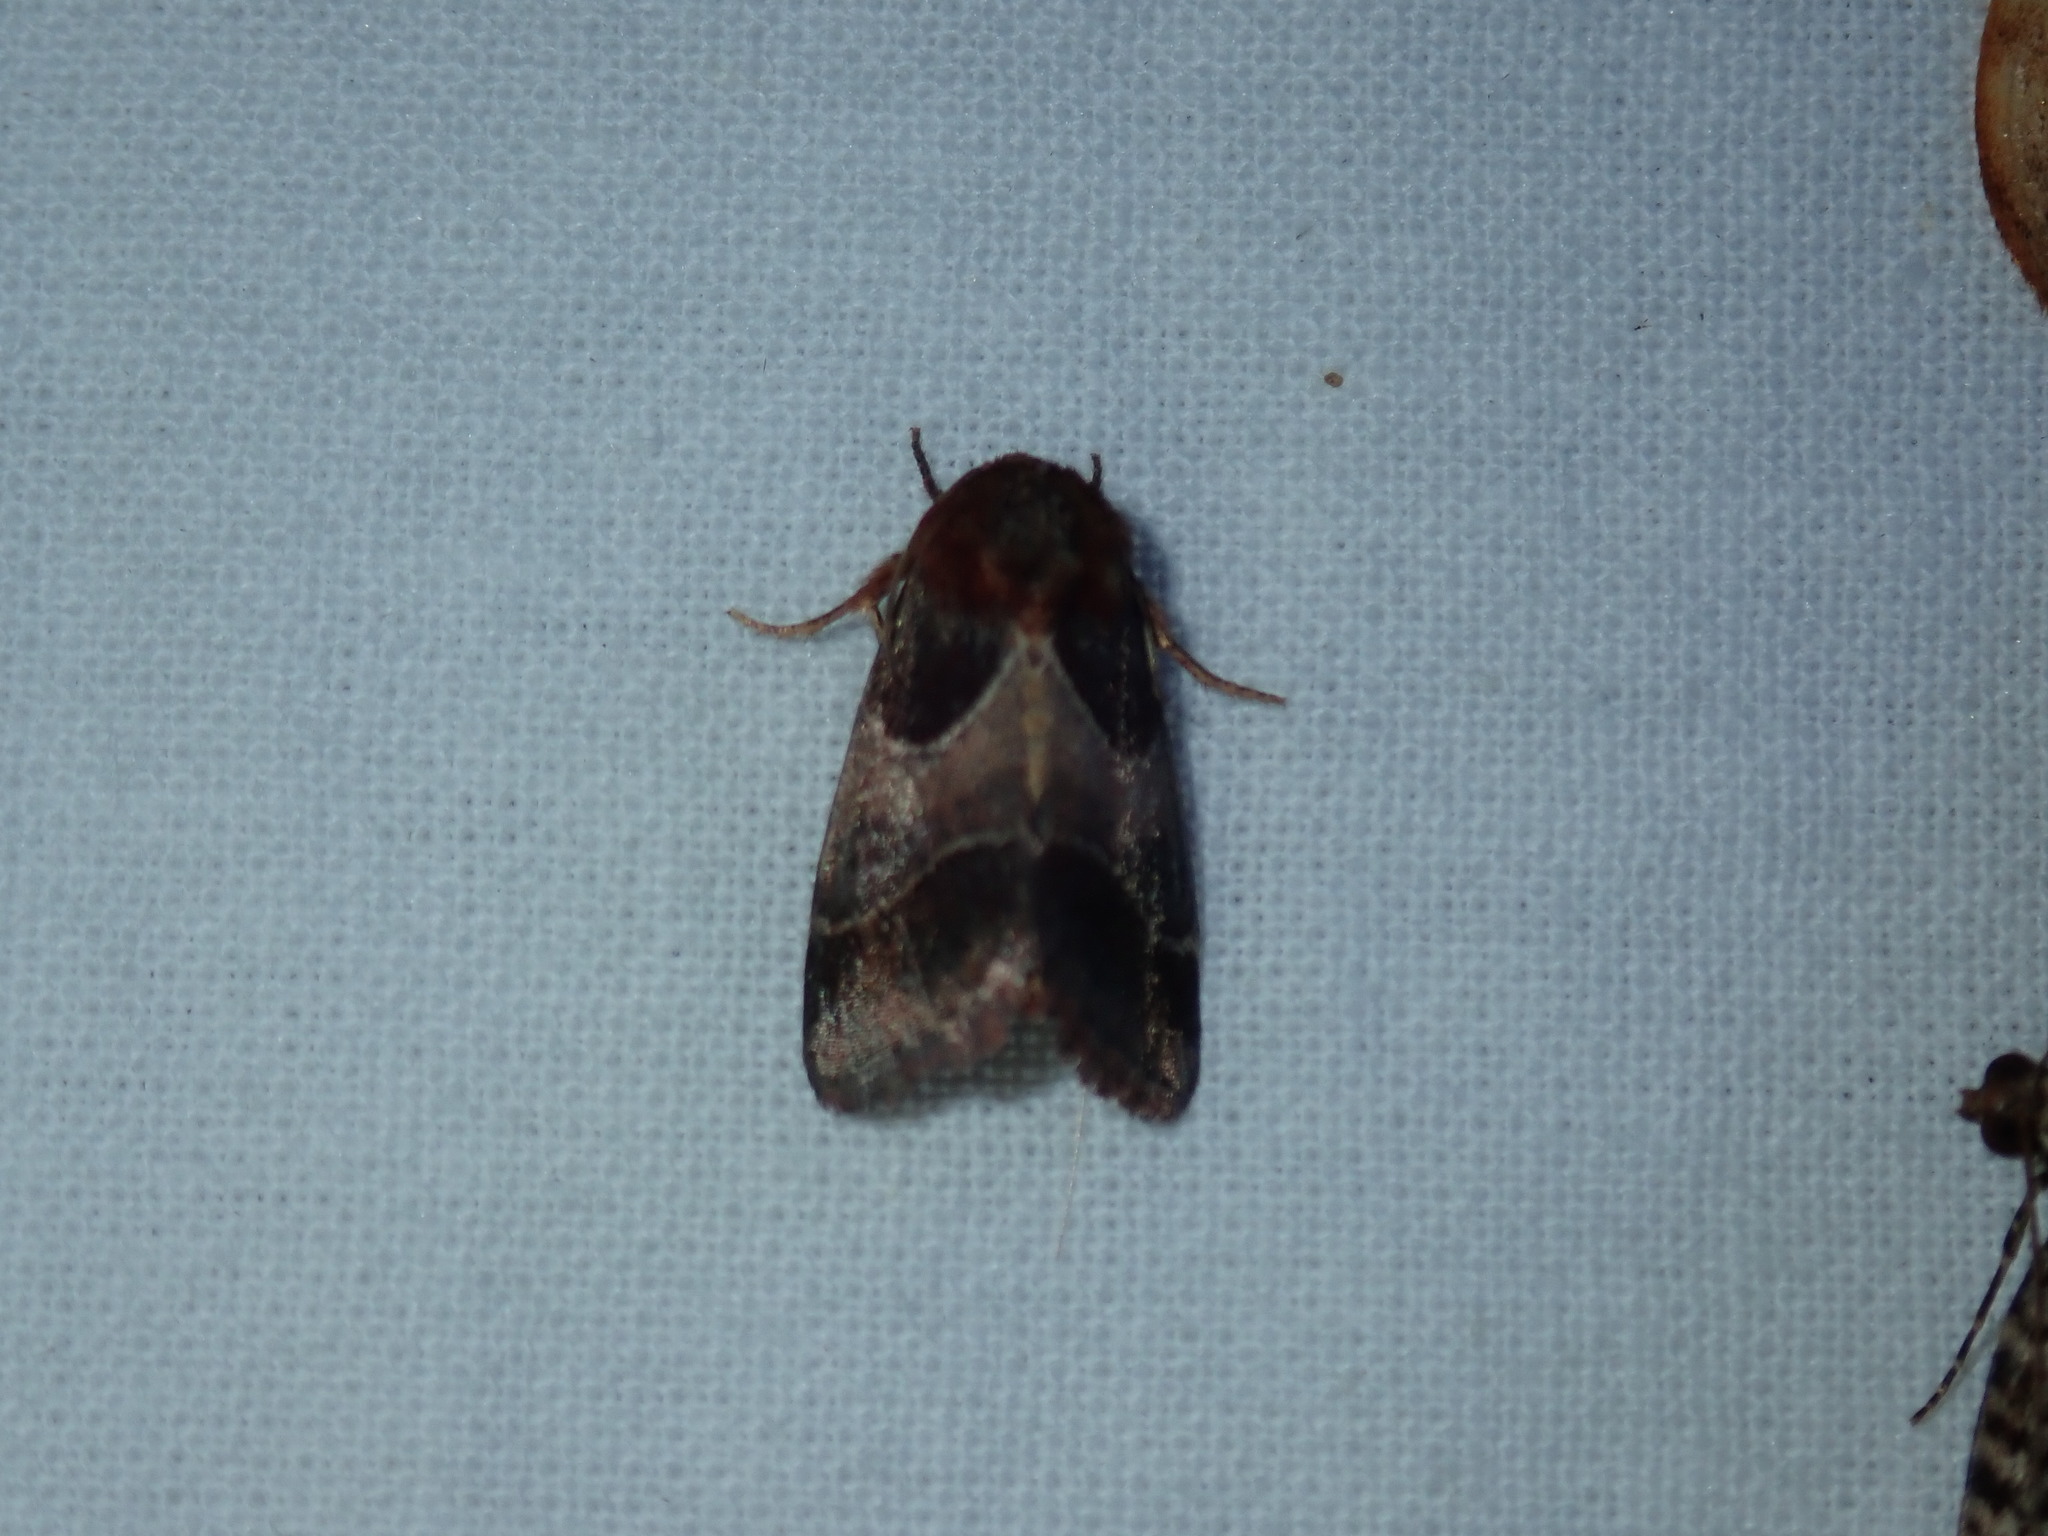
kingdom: Animalia
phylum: Arthropoda
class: Insecta
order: Lepidoptera
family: Noctuidae
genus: Schinia
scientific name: Schinia arcigera
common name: Arcigera flower moth
